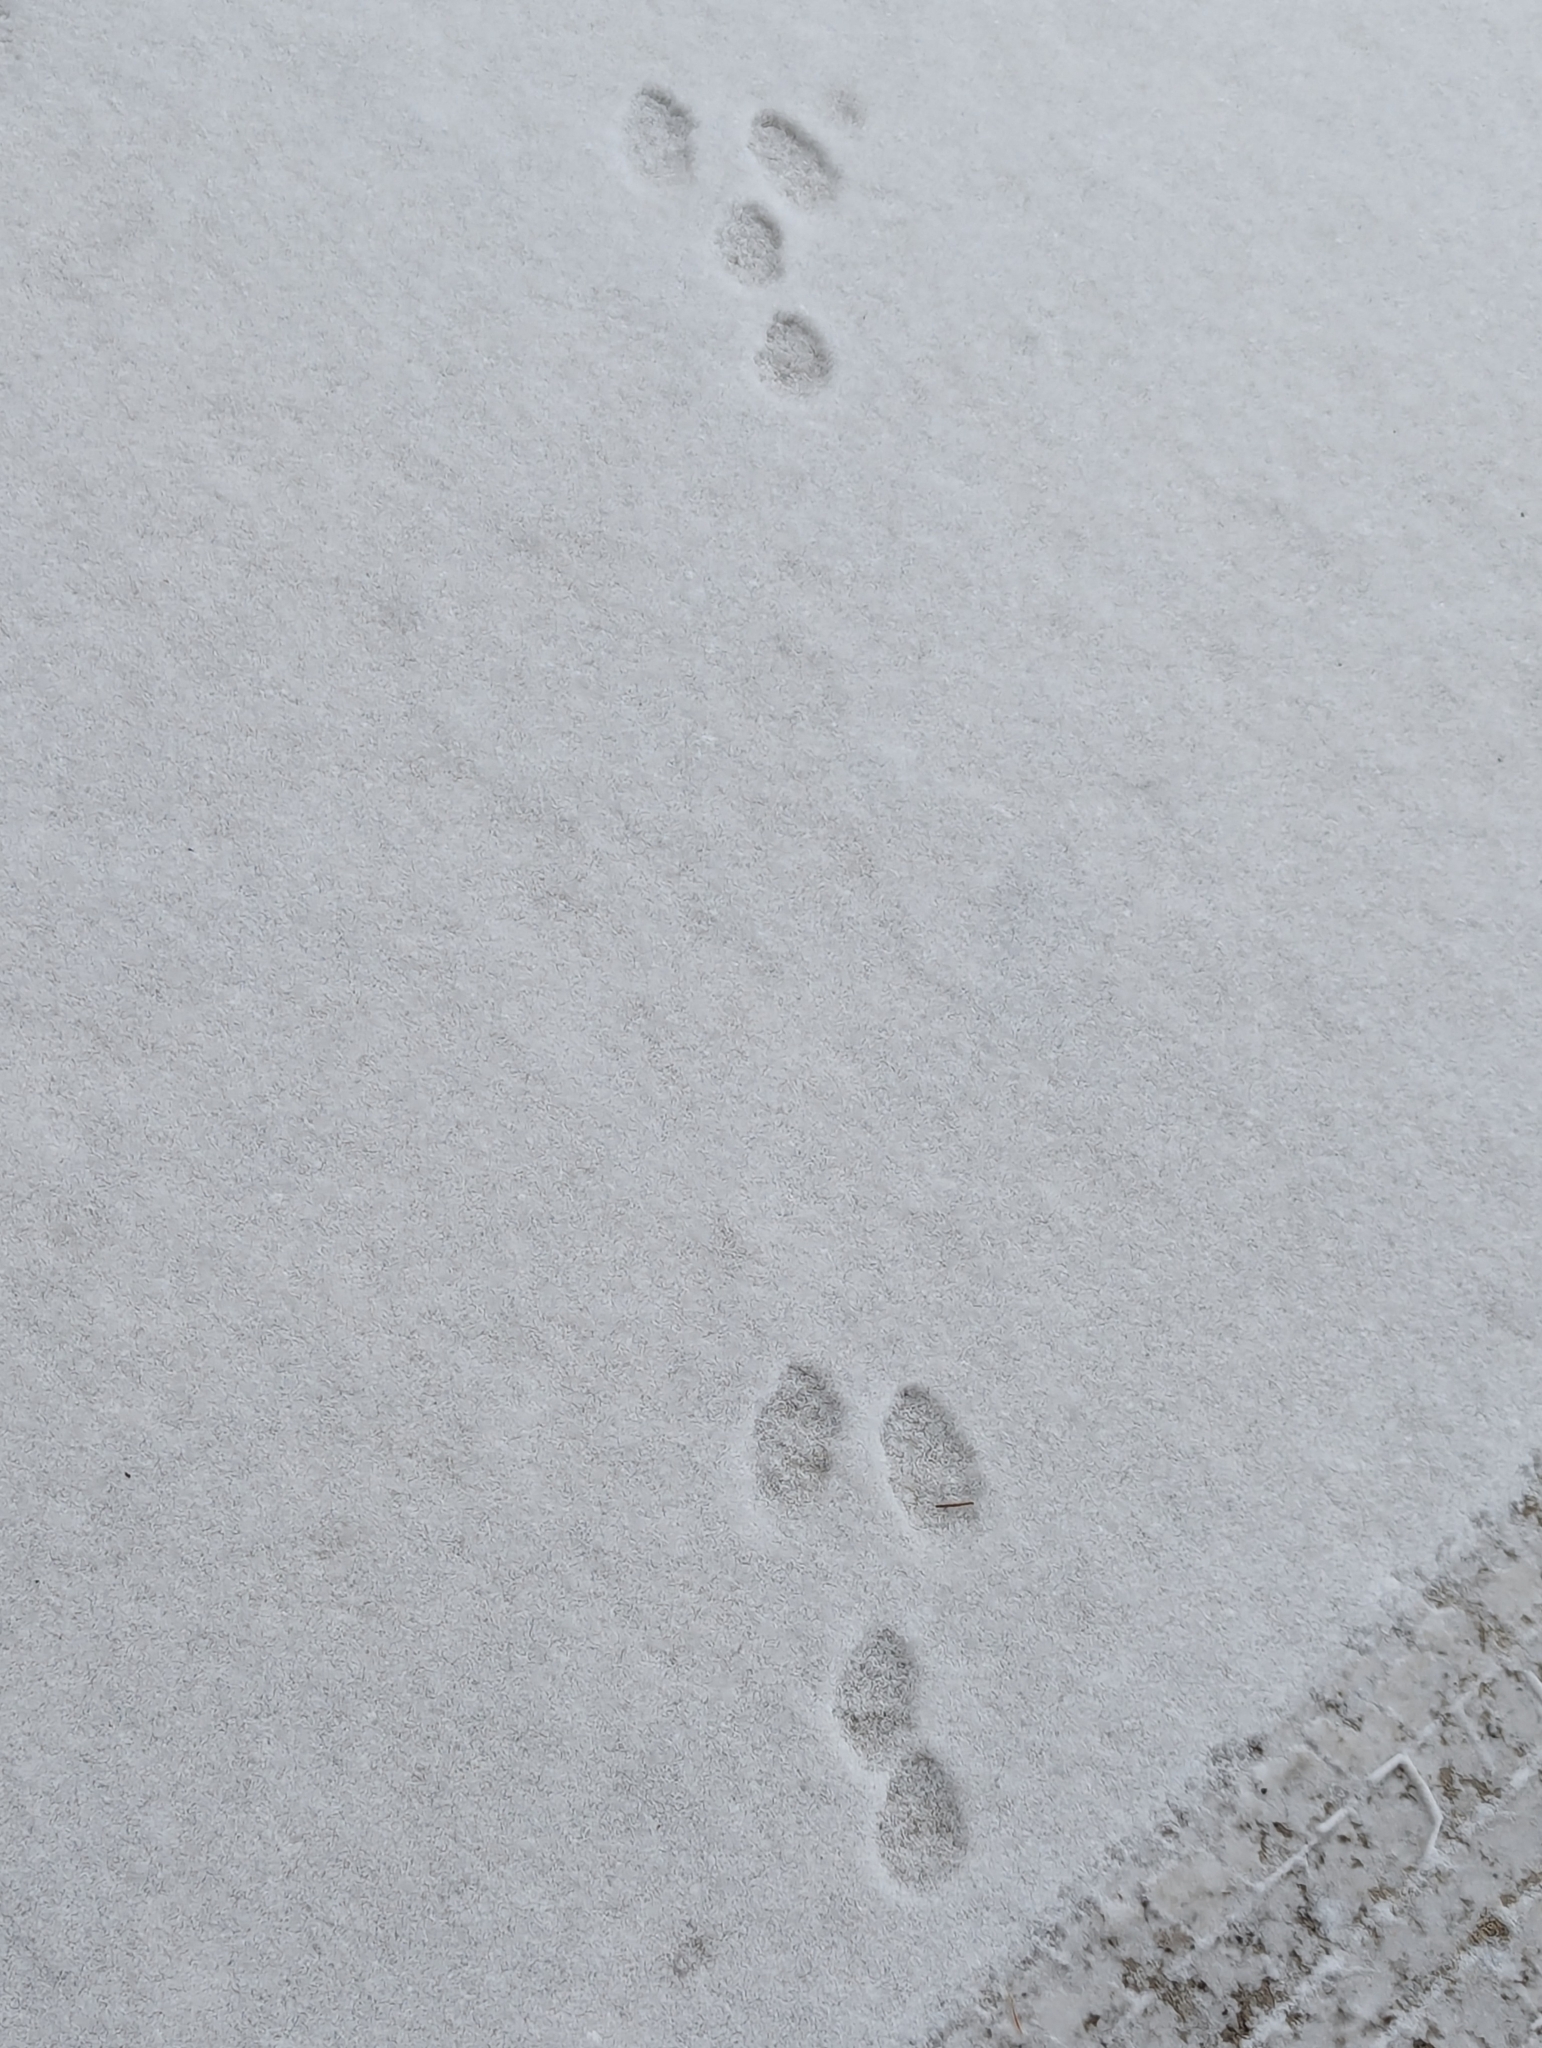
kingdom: Animalia
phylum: Chordata
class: Mammalia
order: Lagomorpha
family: Leporidae
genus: Sylvilagus
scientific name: Sylvilagus floridanus
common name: Eastern cottontail
